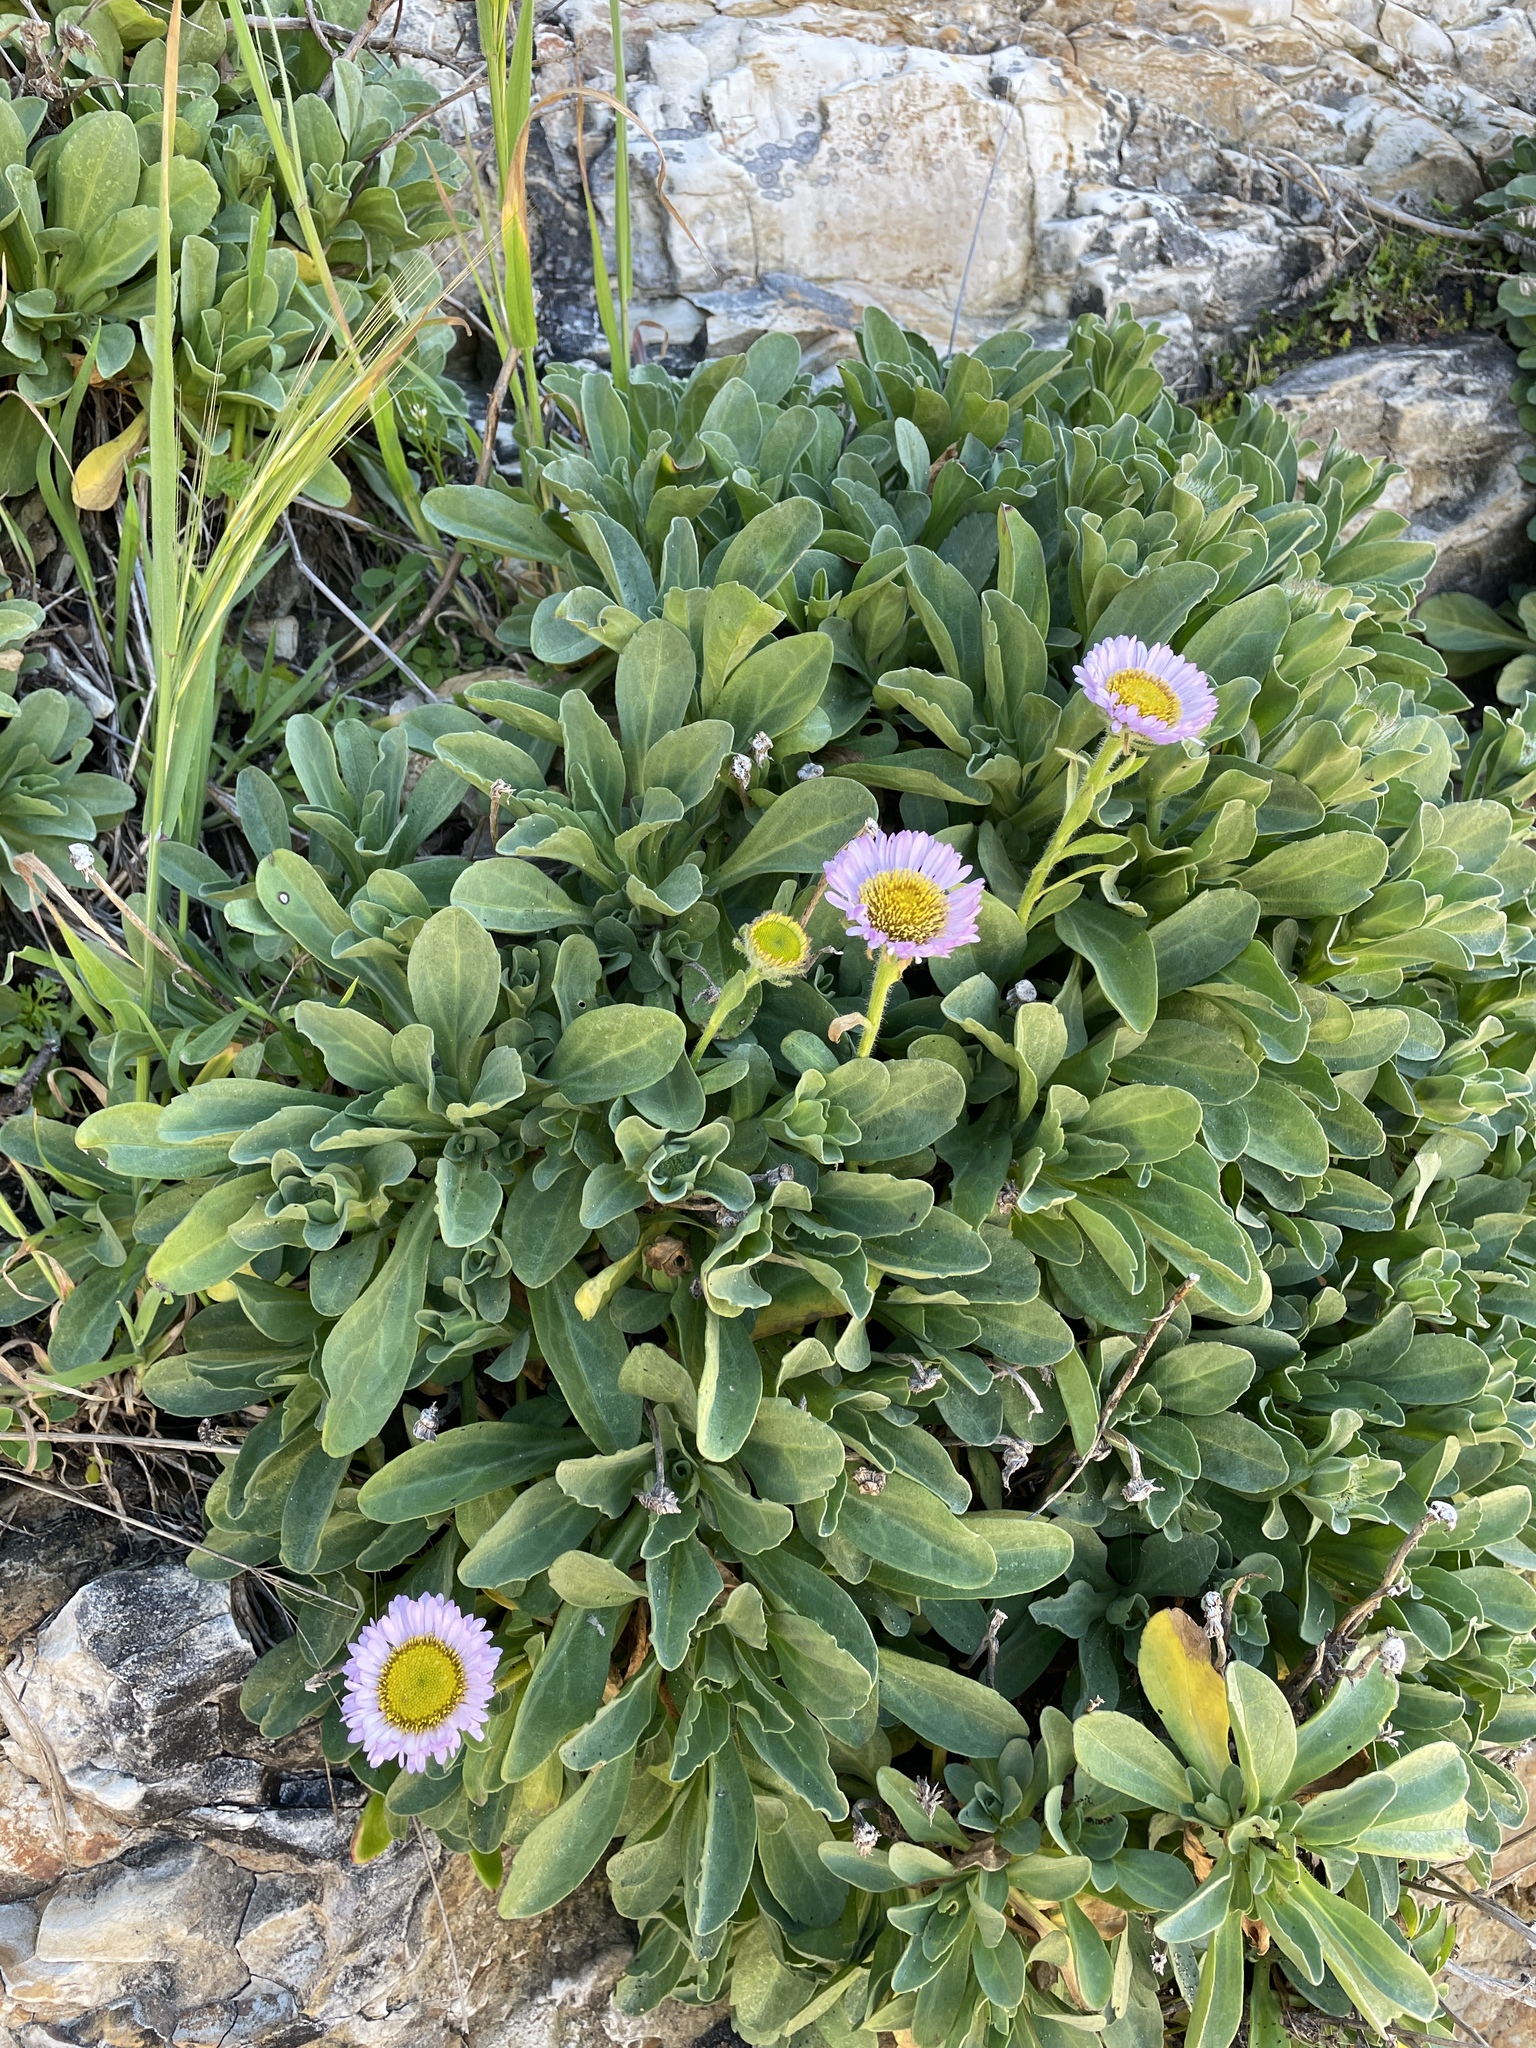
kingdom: Plantae
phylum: Tracheophyta
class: Magnoliopsida
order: Asterales
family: Asteraceae
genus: Erigeron
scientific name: Erigeron glaucus
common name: Seaside daisy
